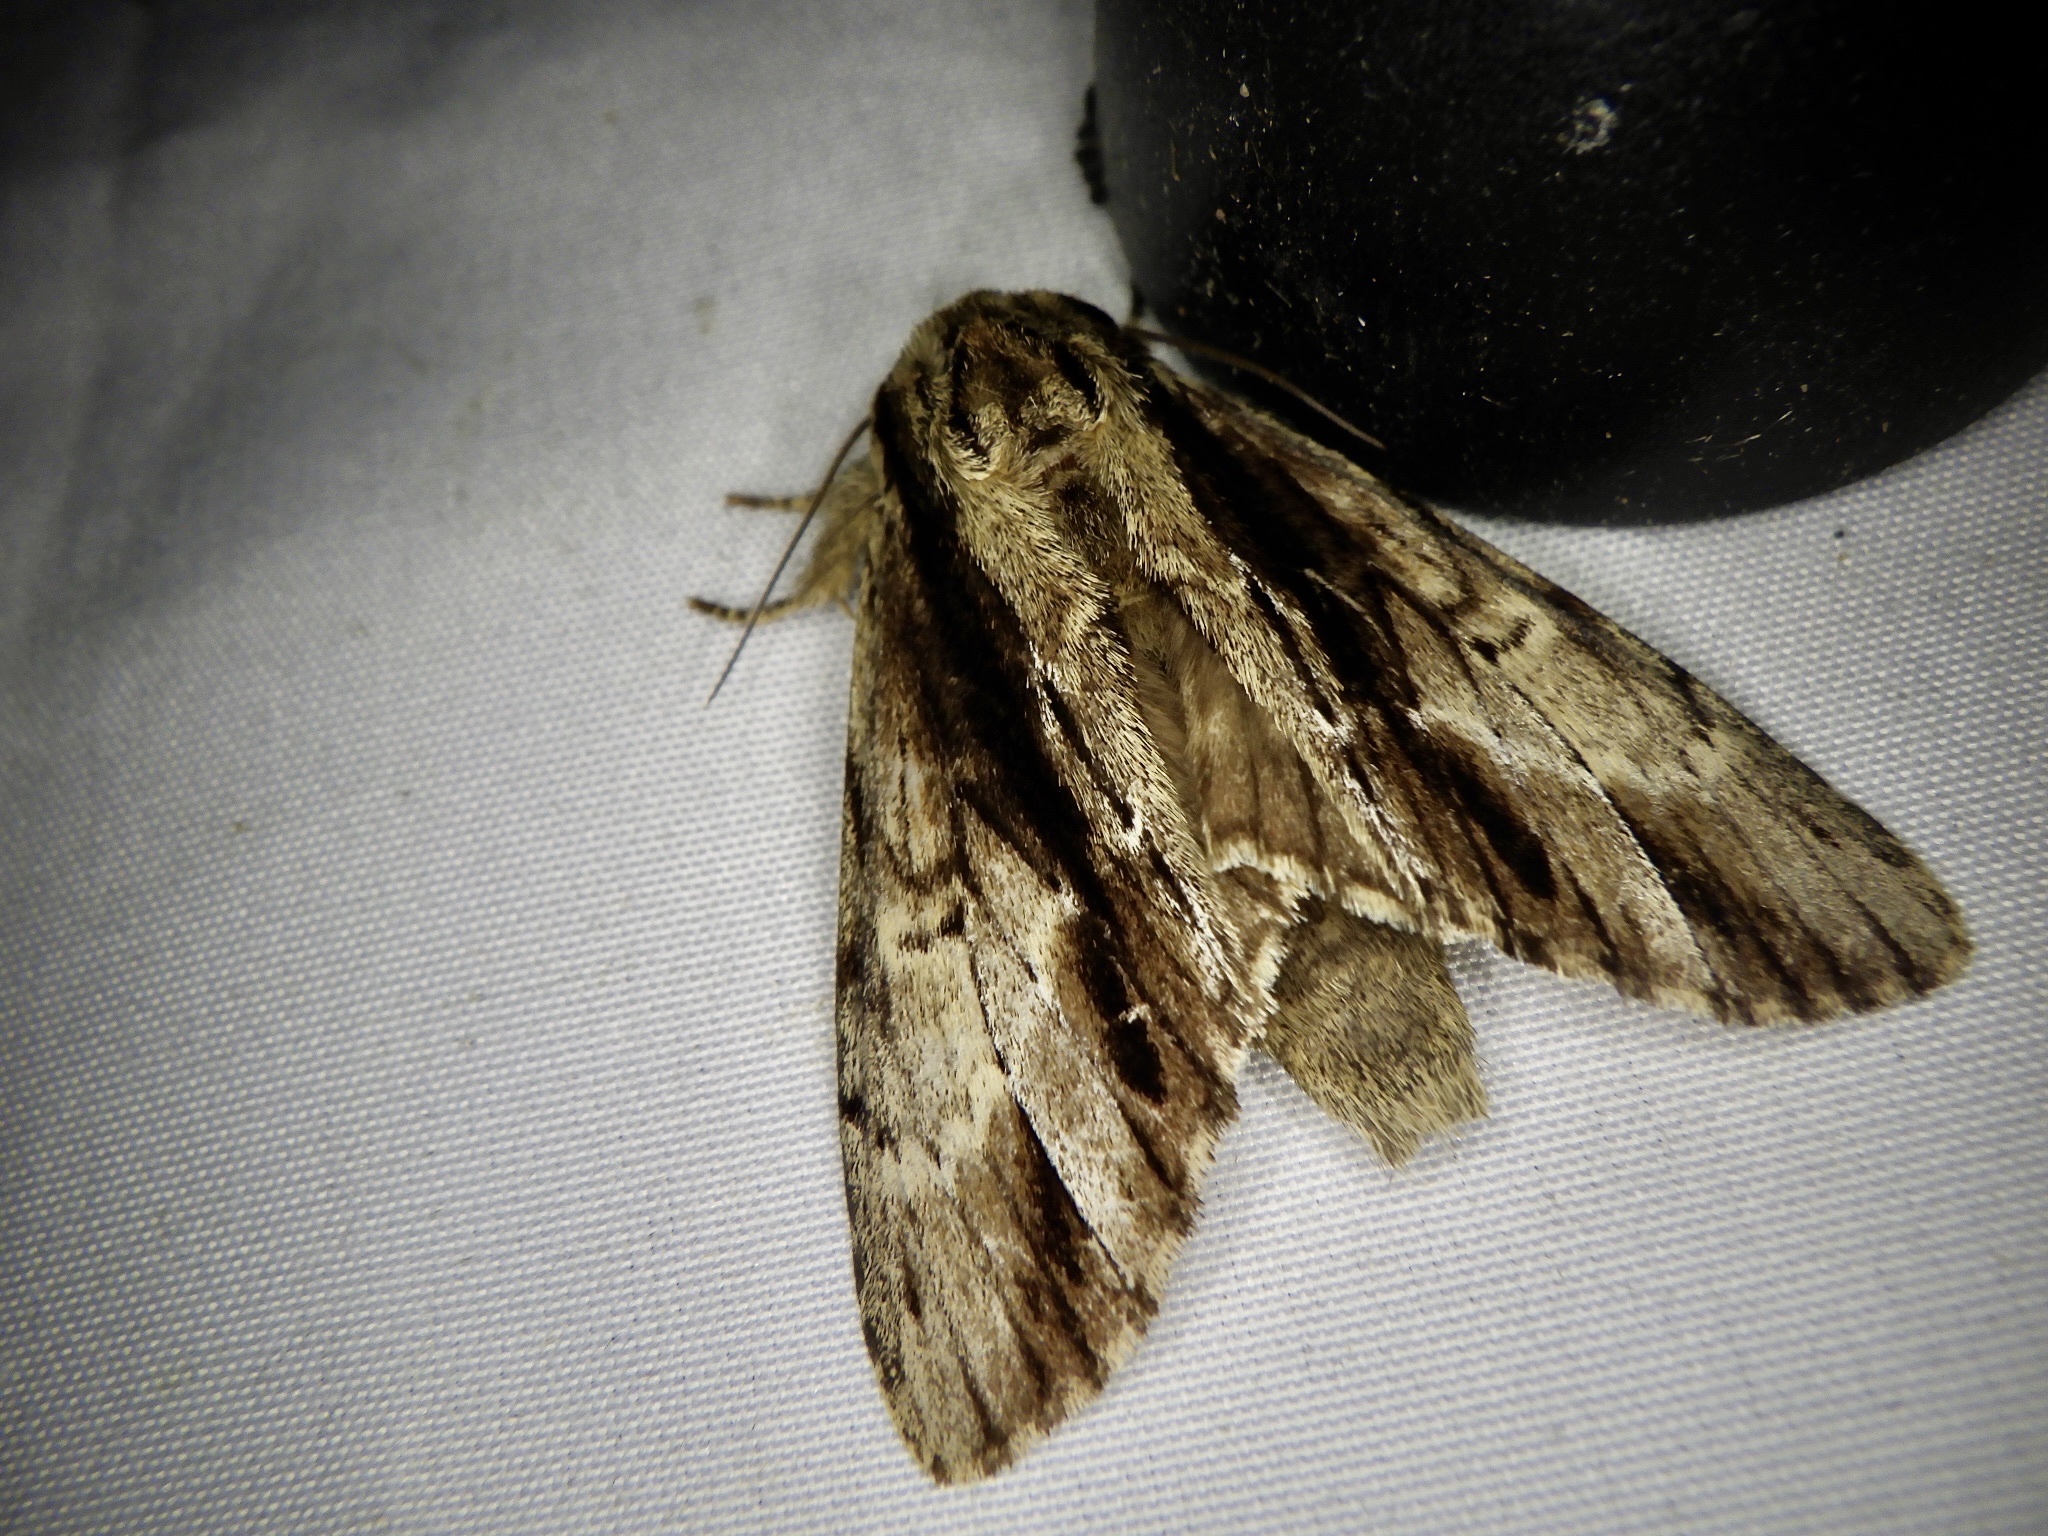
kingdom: Animalia
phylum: Arthropoda
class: Insecta
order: Lepidoptera
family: Notodontidae
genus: Shaka
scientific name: Shaka atrovittatus
